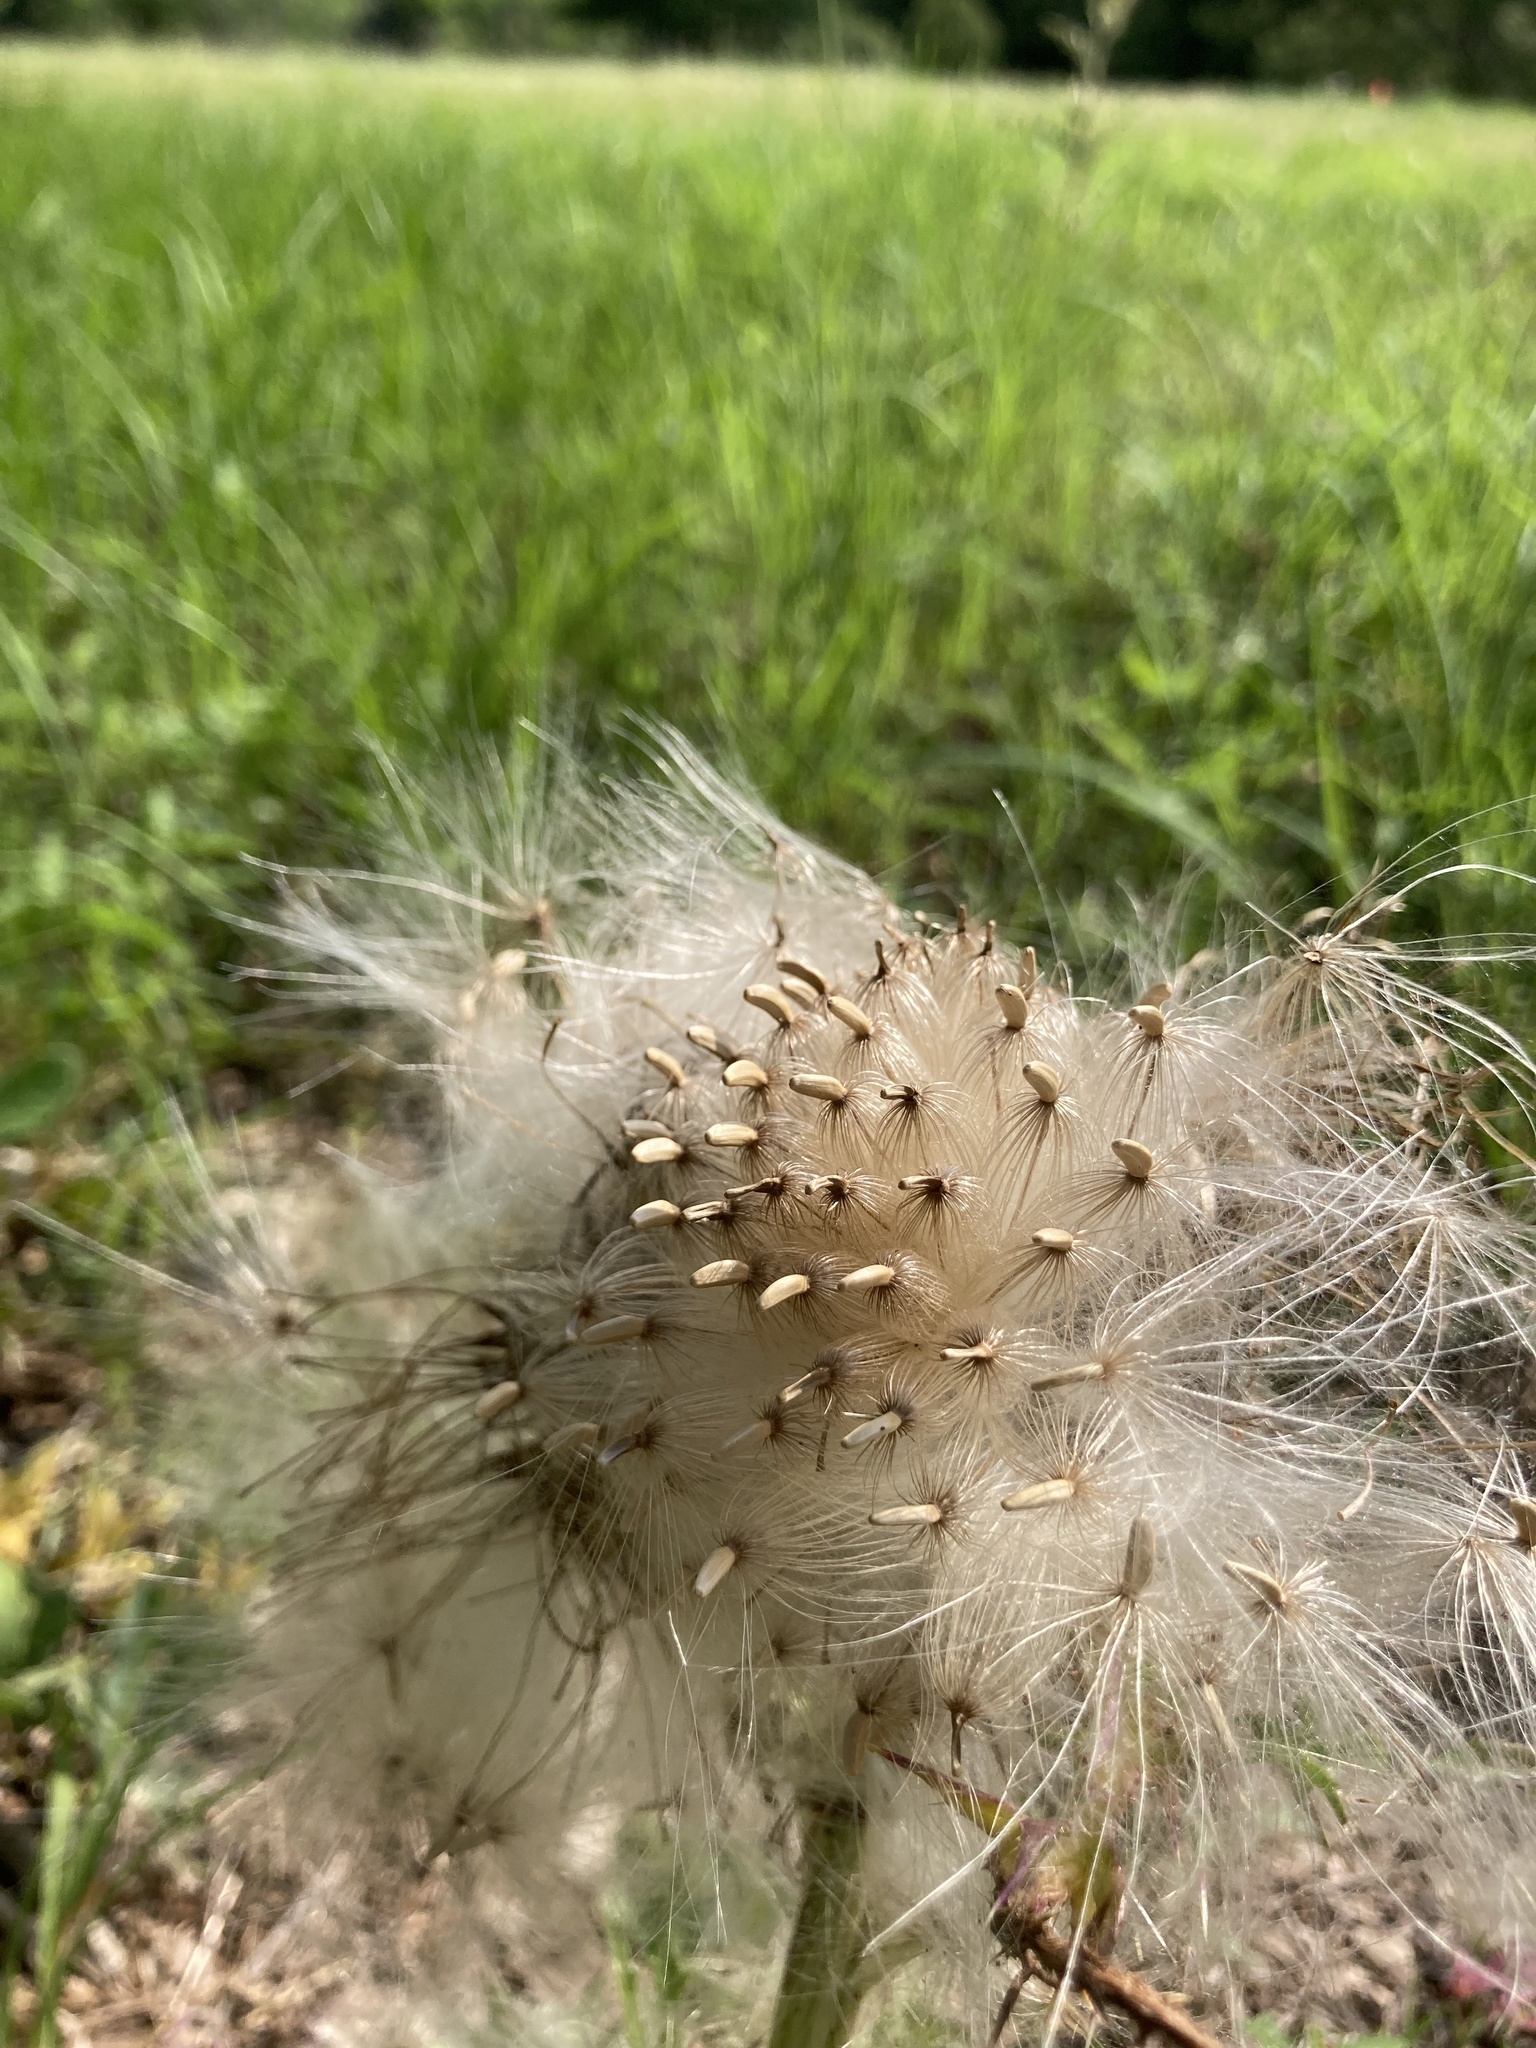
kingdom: Plantae
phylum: Tracheophyta
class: Magnoliopsida
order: Asterales
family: Asteraceae
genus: Cirsium
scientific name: Cirsium horridulum
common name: Bristly thistle
